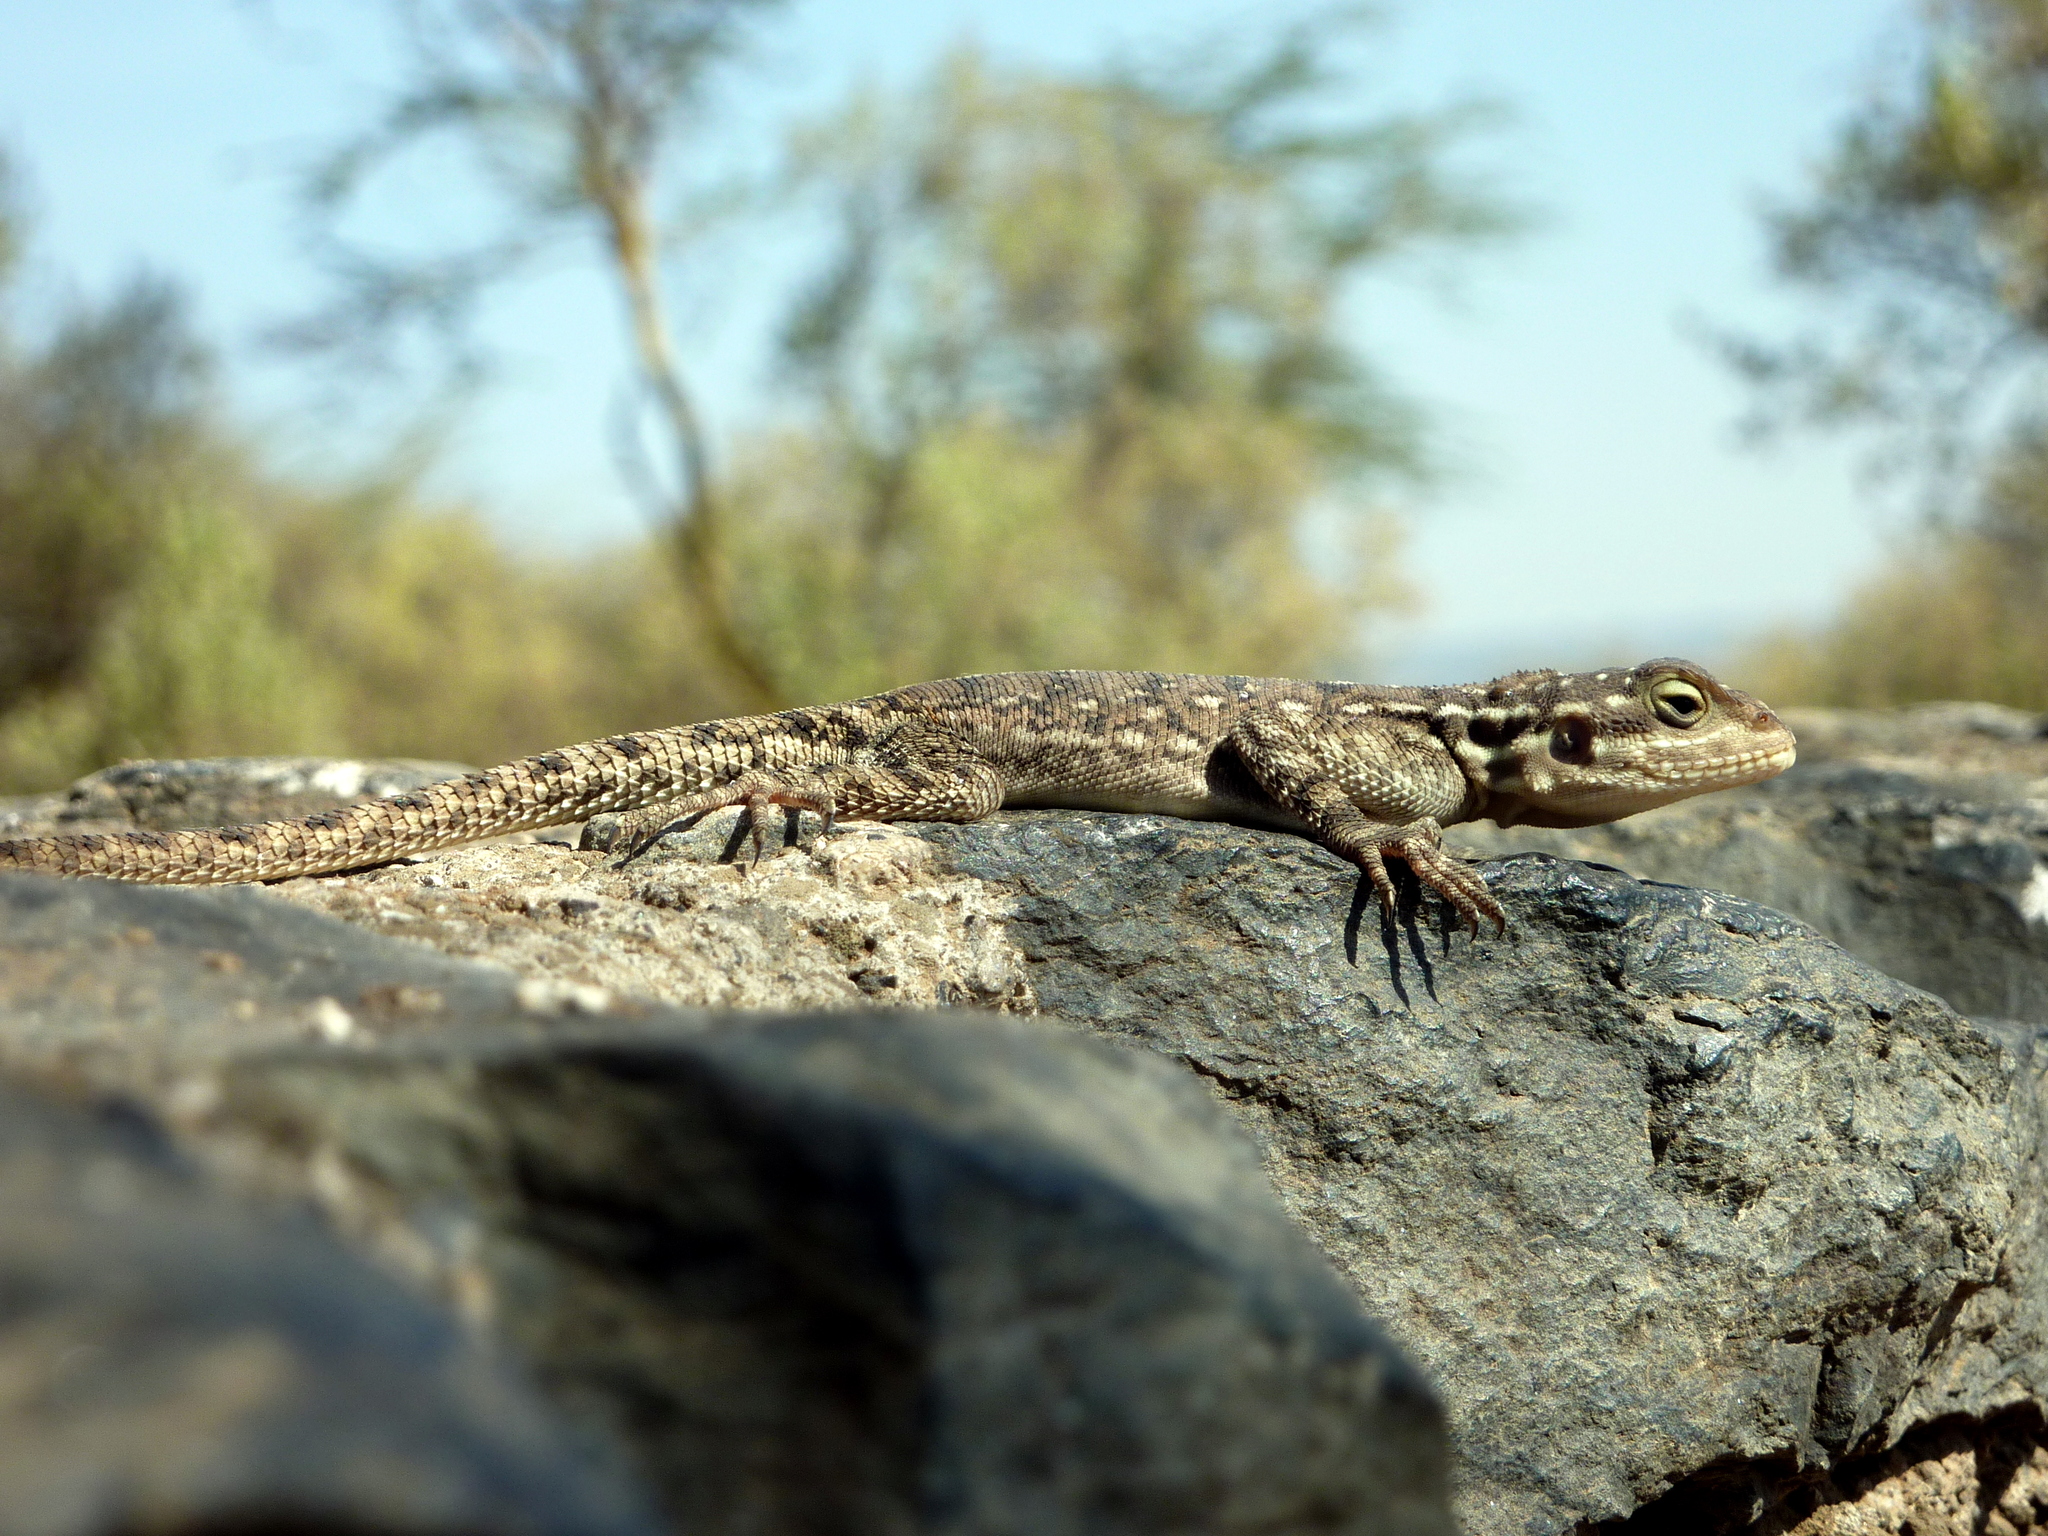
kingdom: Animalia
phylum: Chordata
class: Squamata
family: Agamidae
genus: Agama
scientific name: Agama lionotus
